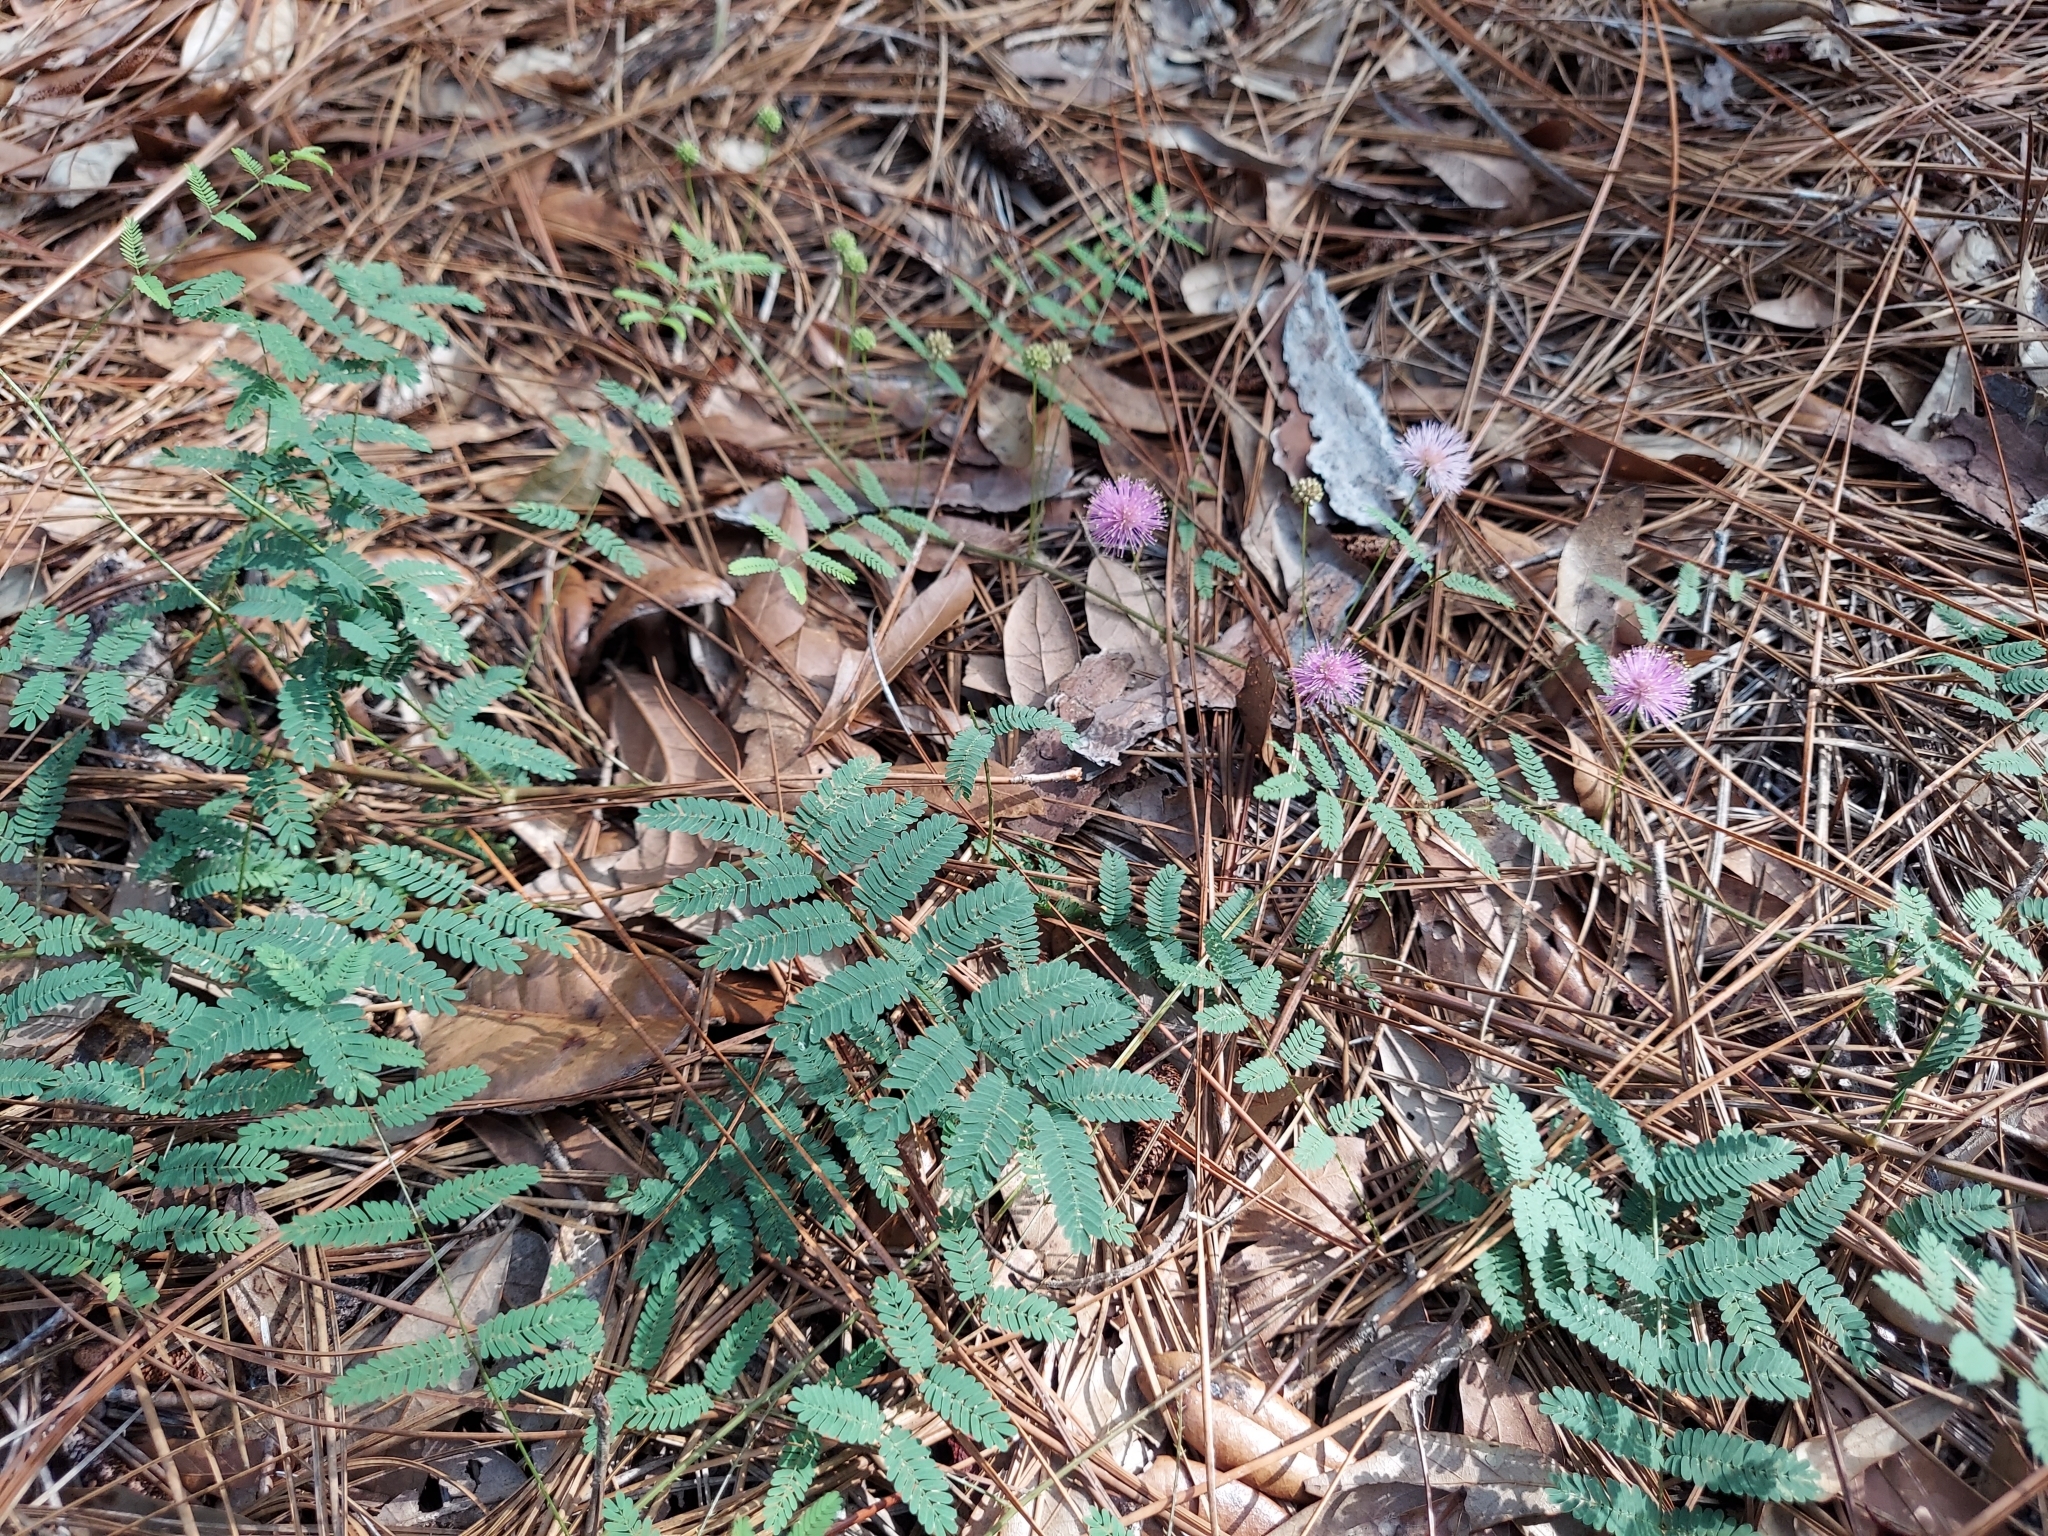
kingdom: Plantae
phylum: Tracheophyta
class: Magnoliopsida
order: Fabales
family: Fabaceae
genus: Mimosa
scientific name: Mimosa quadrivalvis
